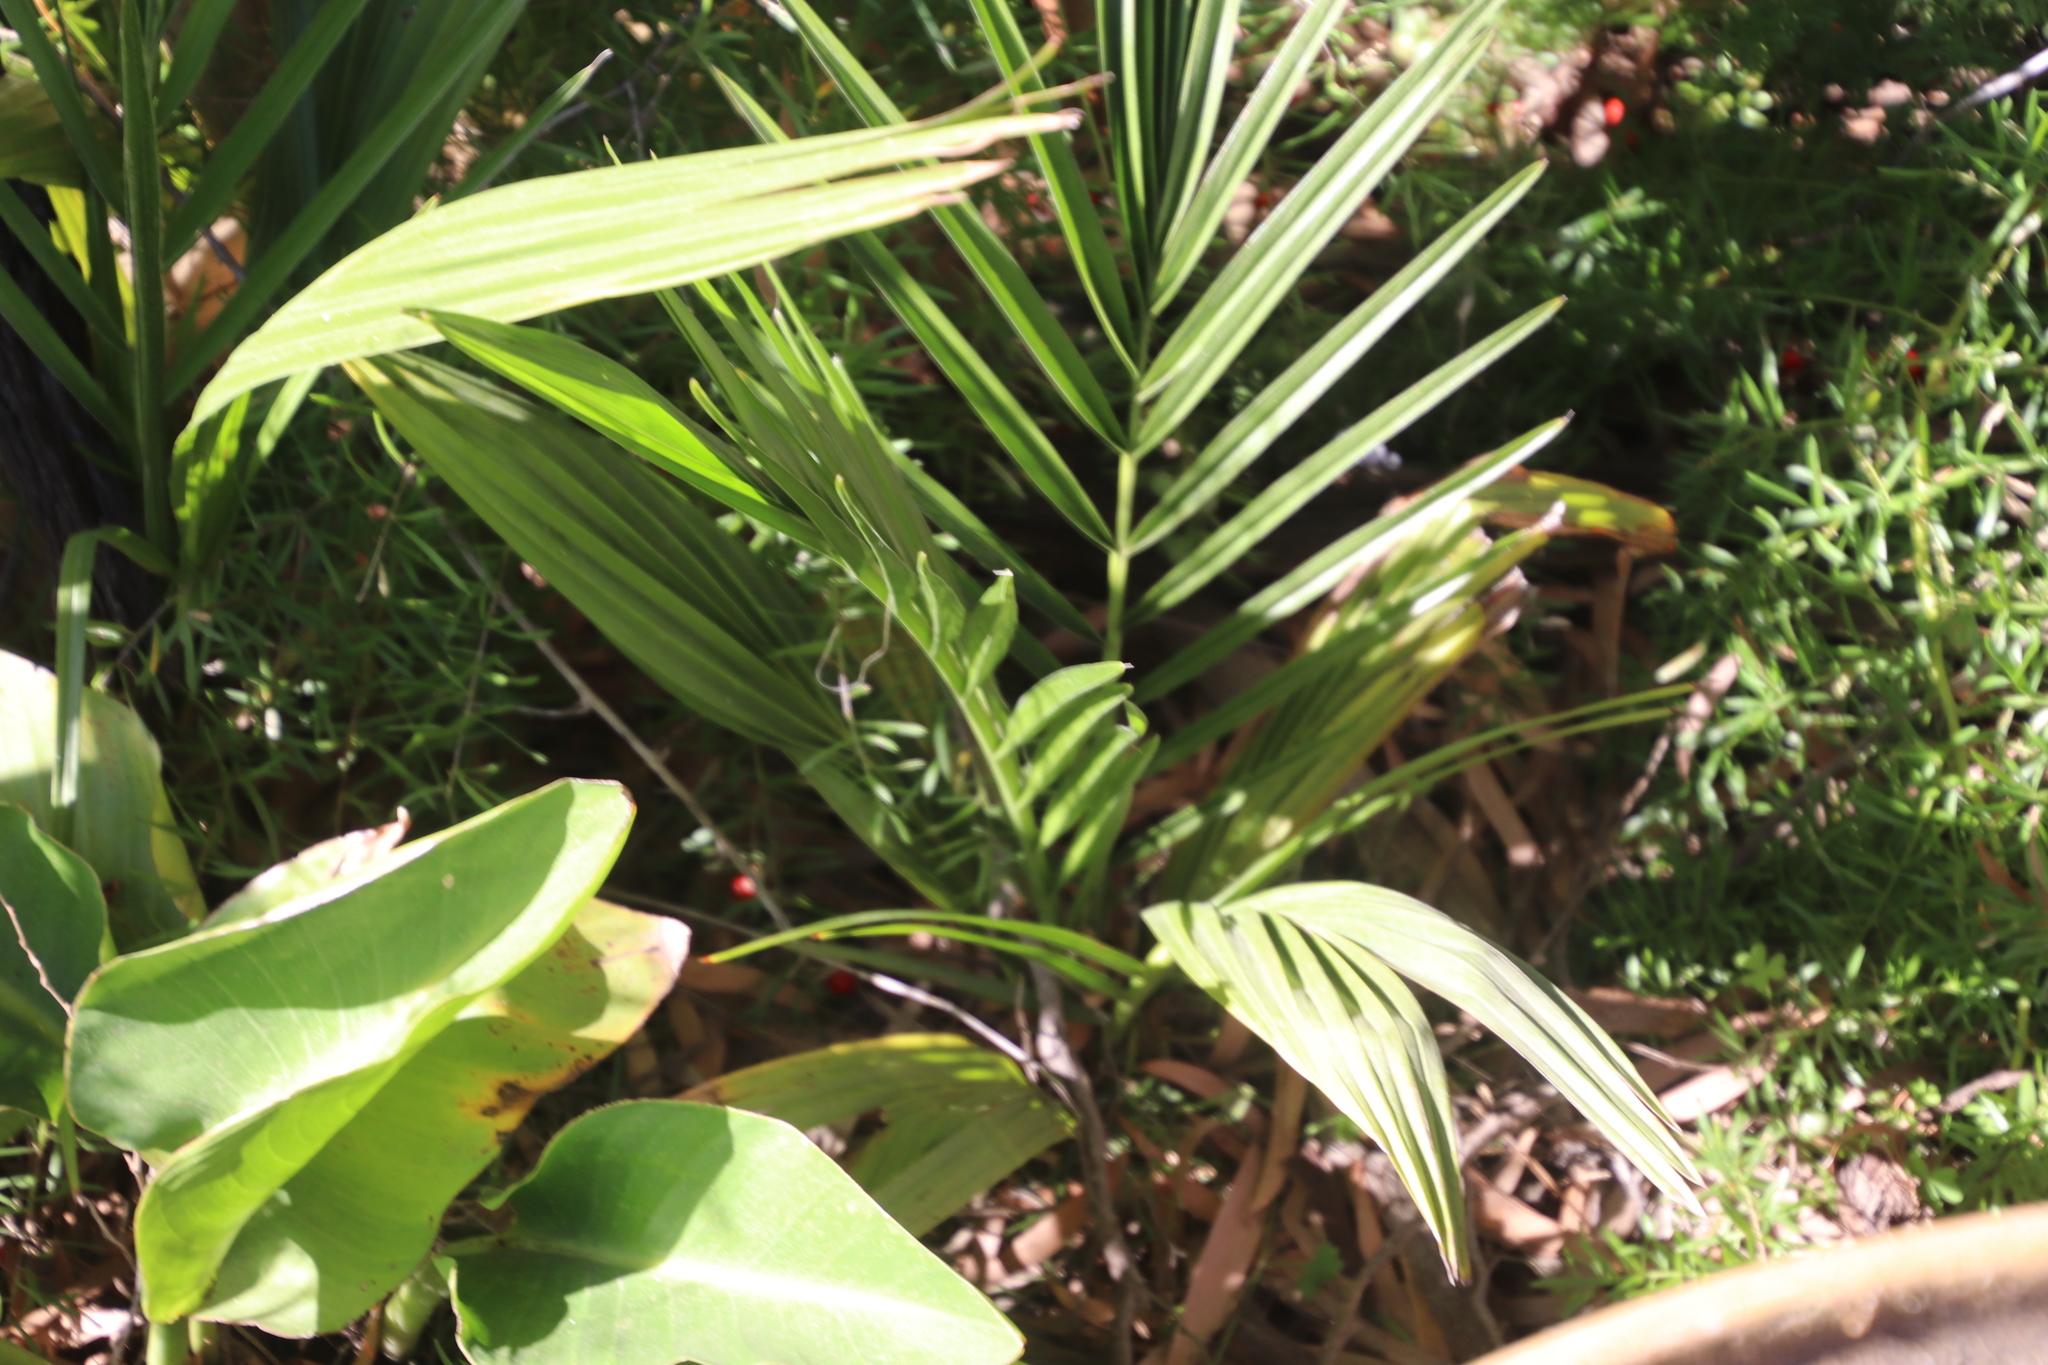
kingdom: Plantae
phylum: Tracheophyta
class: Liliopsida
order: Arecales
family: Arecaceae
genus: Phoenix
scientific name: Phoenix canariensis
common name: Canary island date palm
